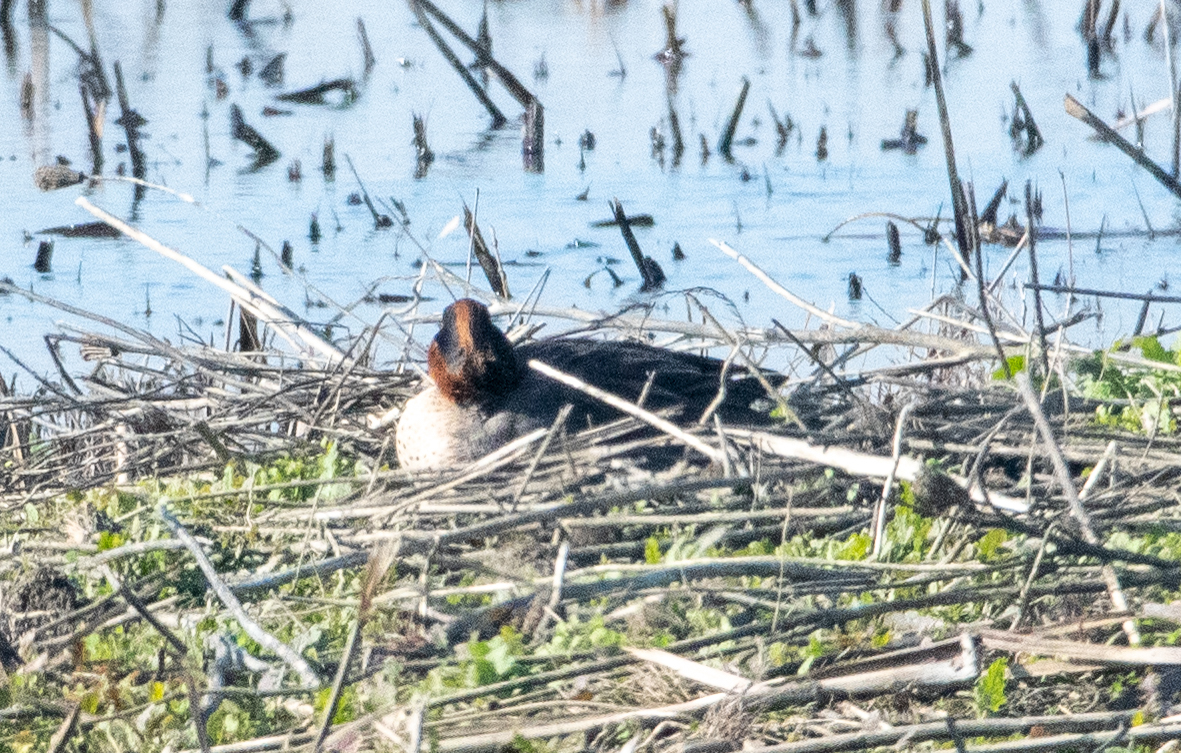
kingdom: Animalia
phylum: Chordata
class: Aves
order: Anseriformes
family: Anatidae
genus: Anas
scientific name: Anas crecca
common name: Eurasian teal
